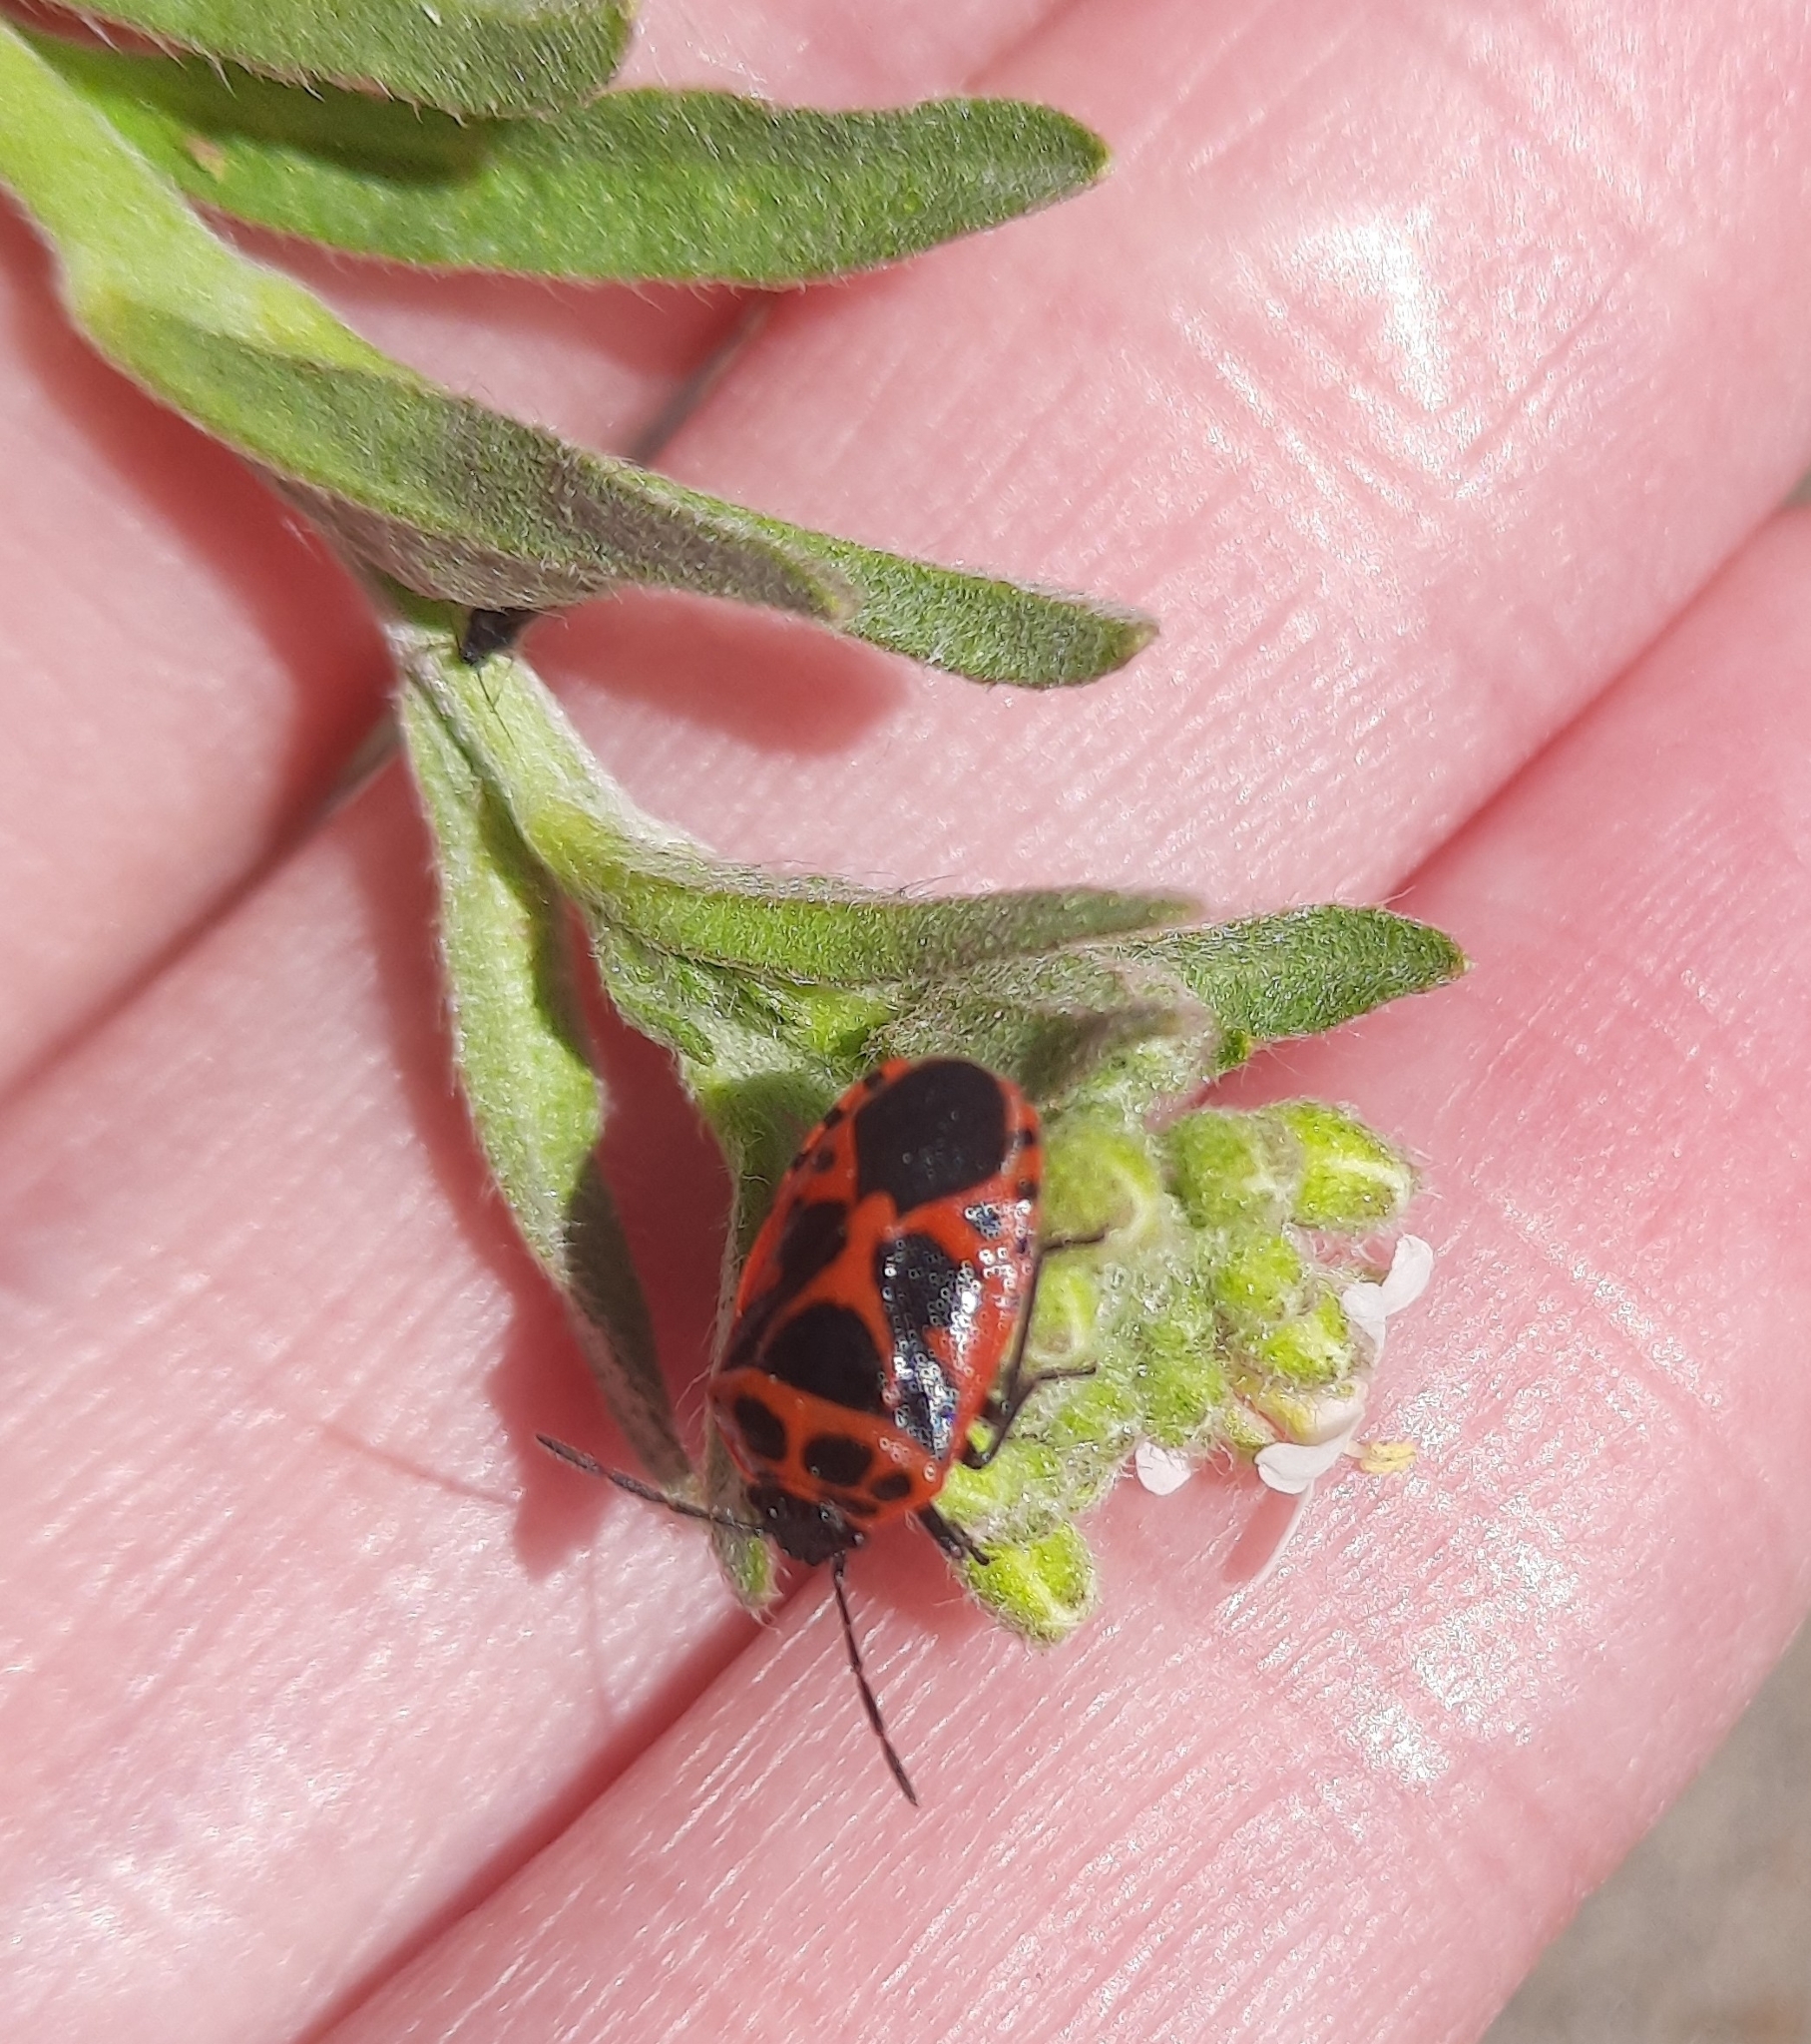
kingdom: Animalia
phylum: Arthropoda
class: Insecta
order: Hemiptera
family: Pentatomidae
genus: Eurydema
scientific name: Eurydema dominulus
